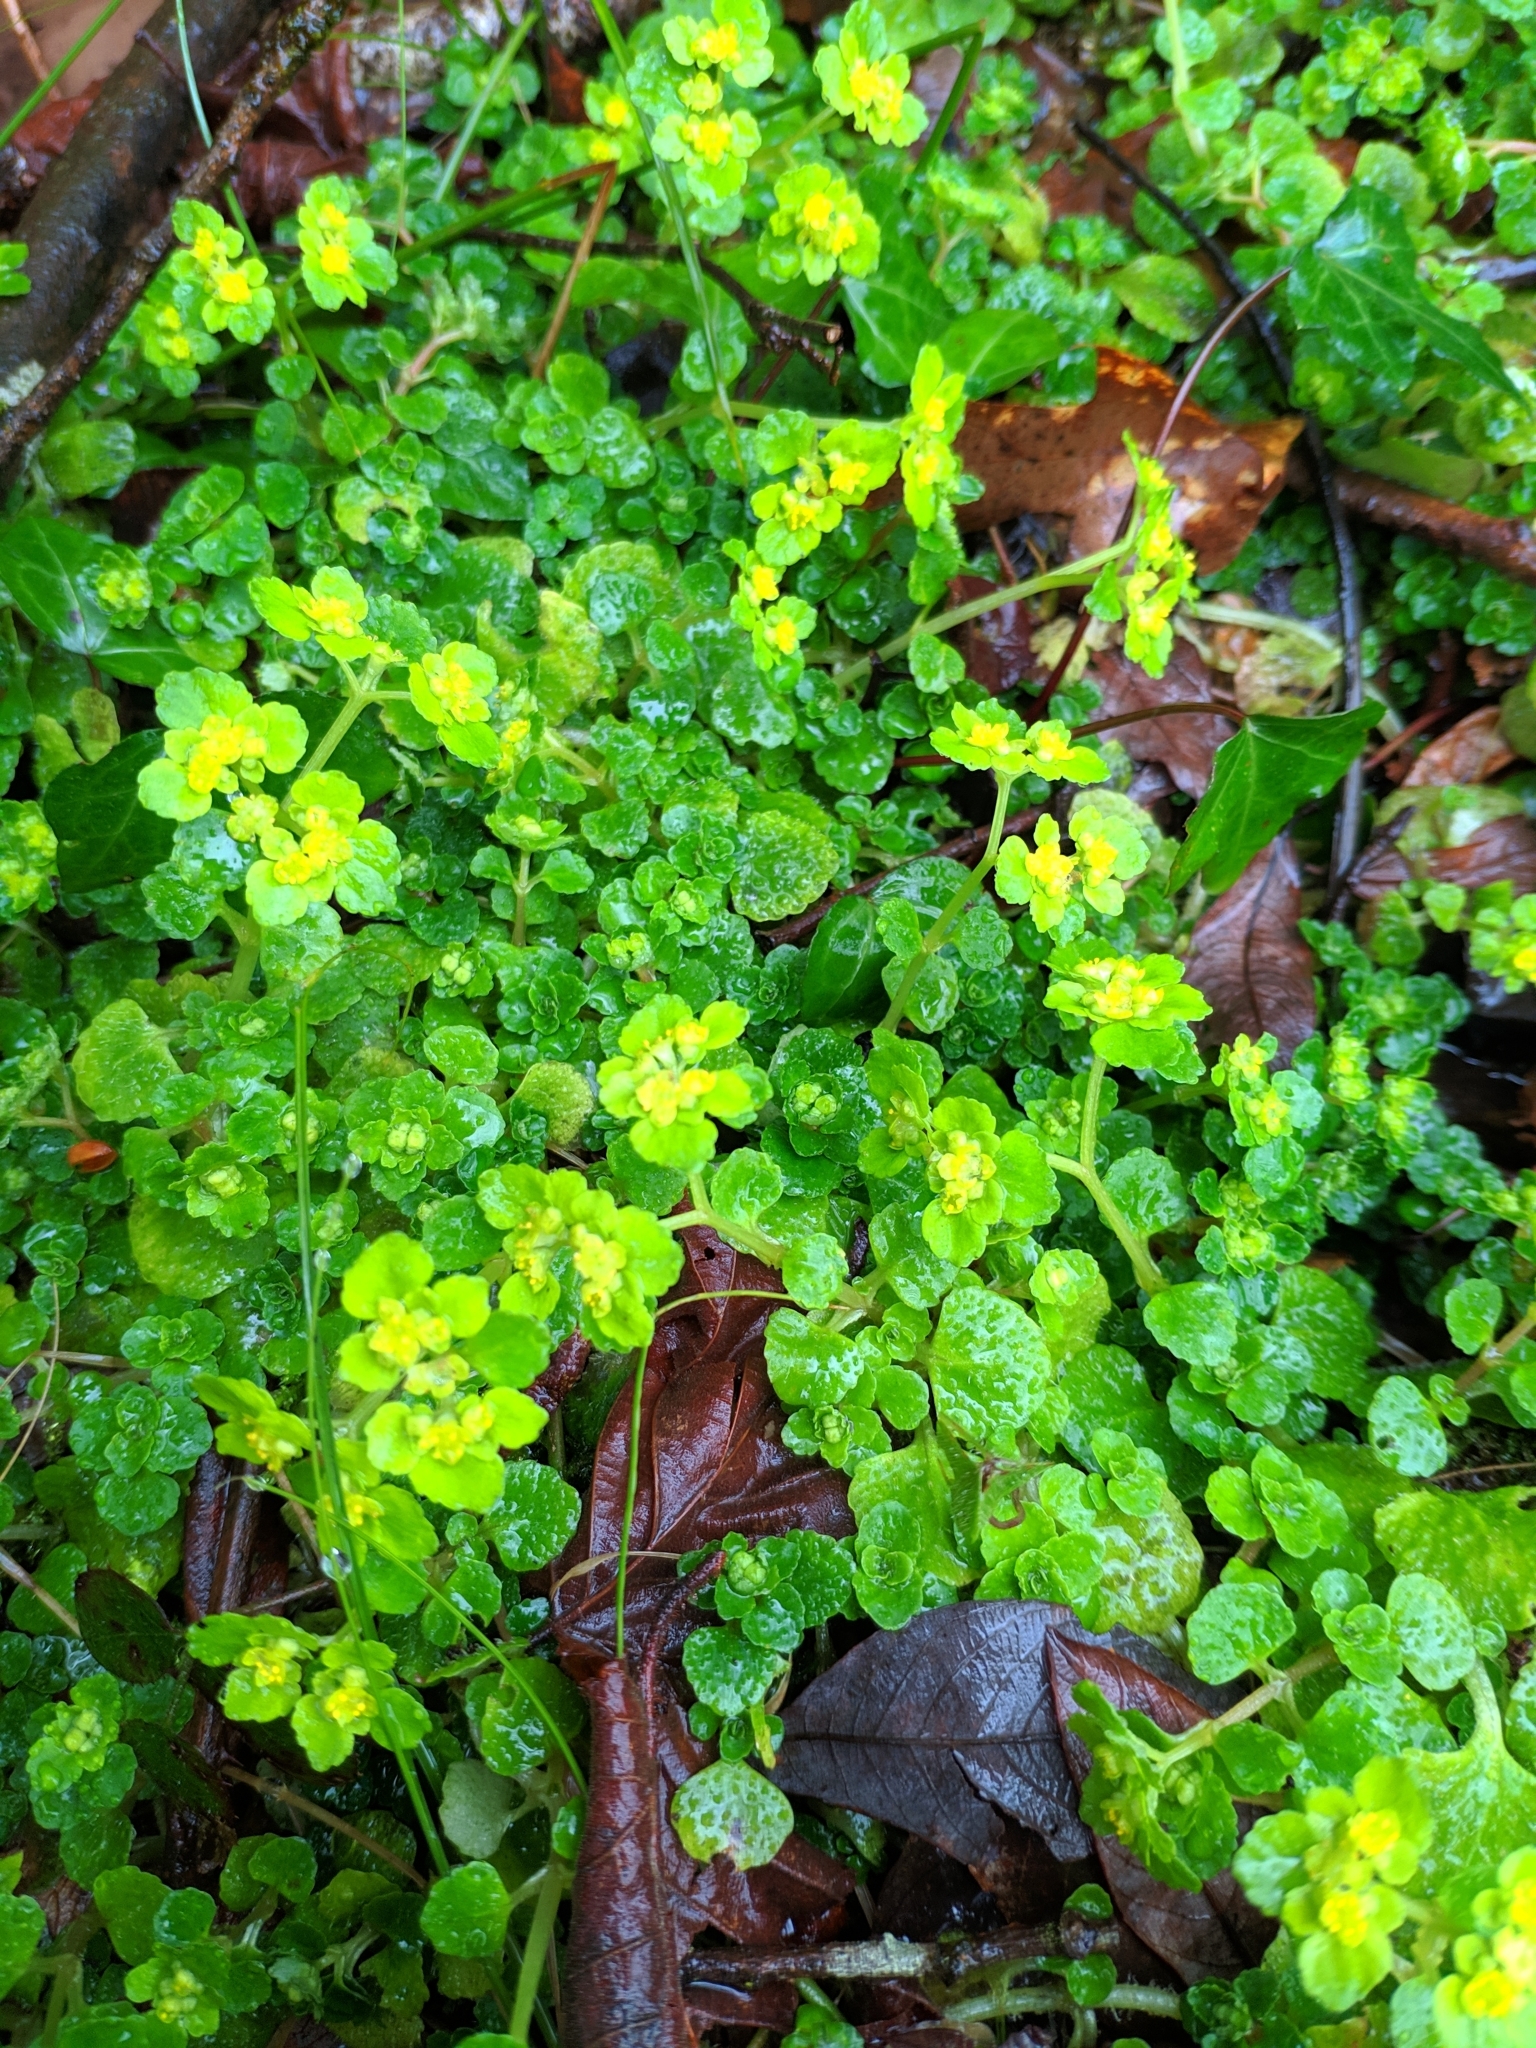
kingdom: Plantae
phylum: Tracheophyta
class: Magnoliopsida
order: Saxifragales
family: Saxifragaceae
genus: Chrysosplenium
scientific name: Chrysosplenium oppositifolium
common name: Opposite-leaved golden-saxifrage
